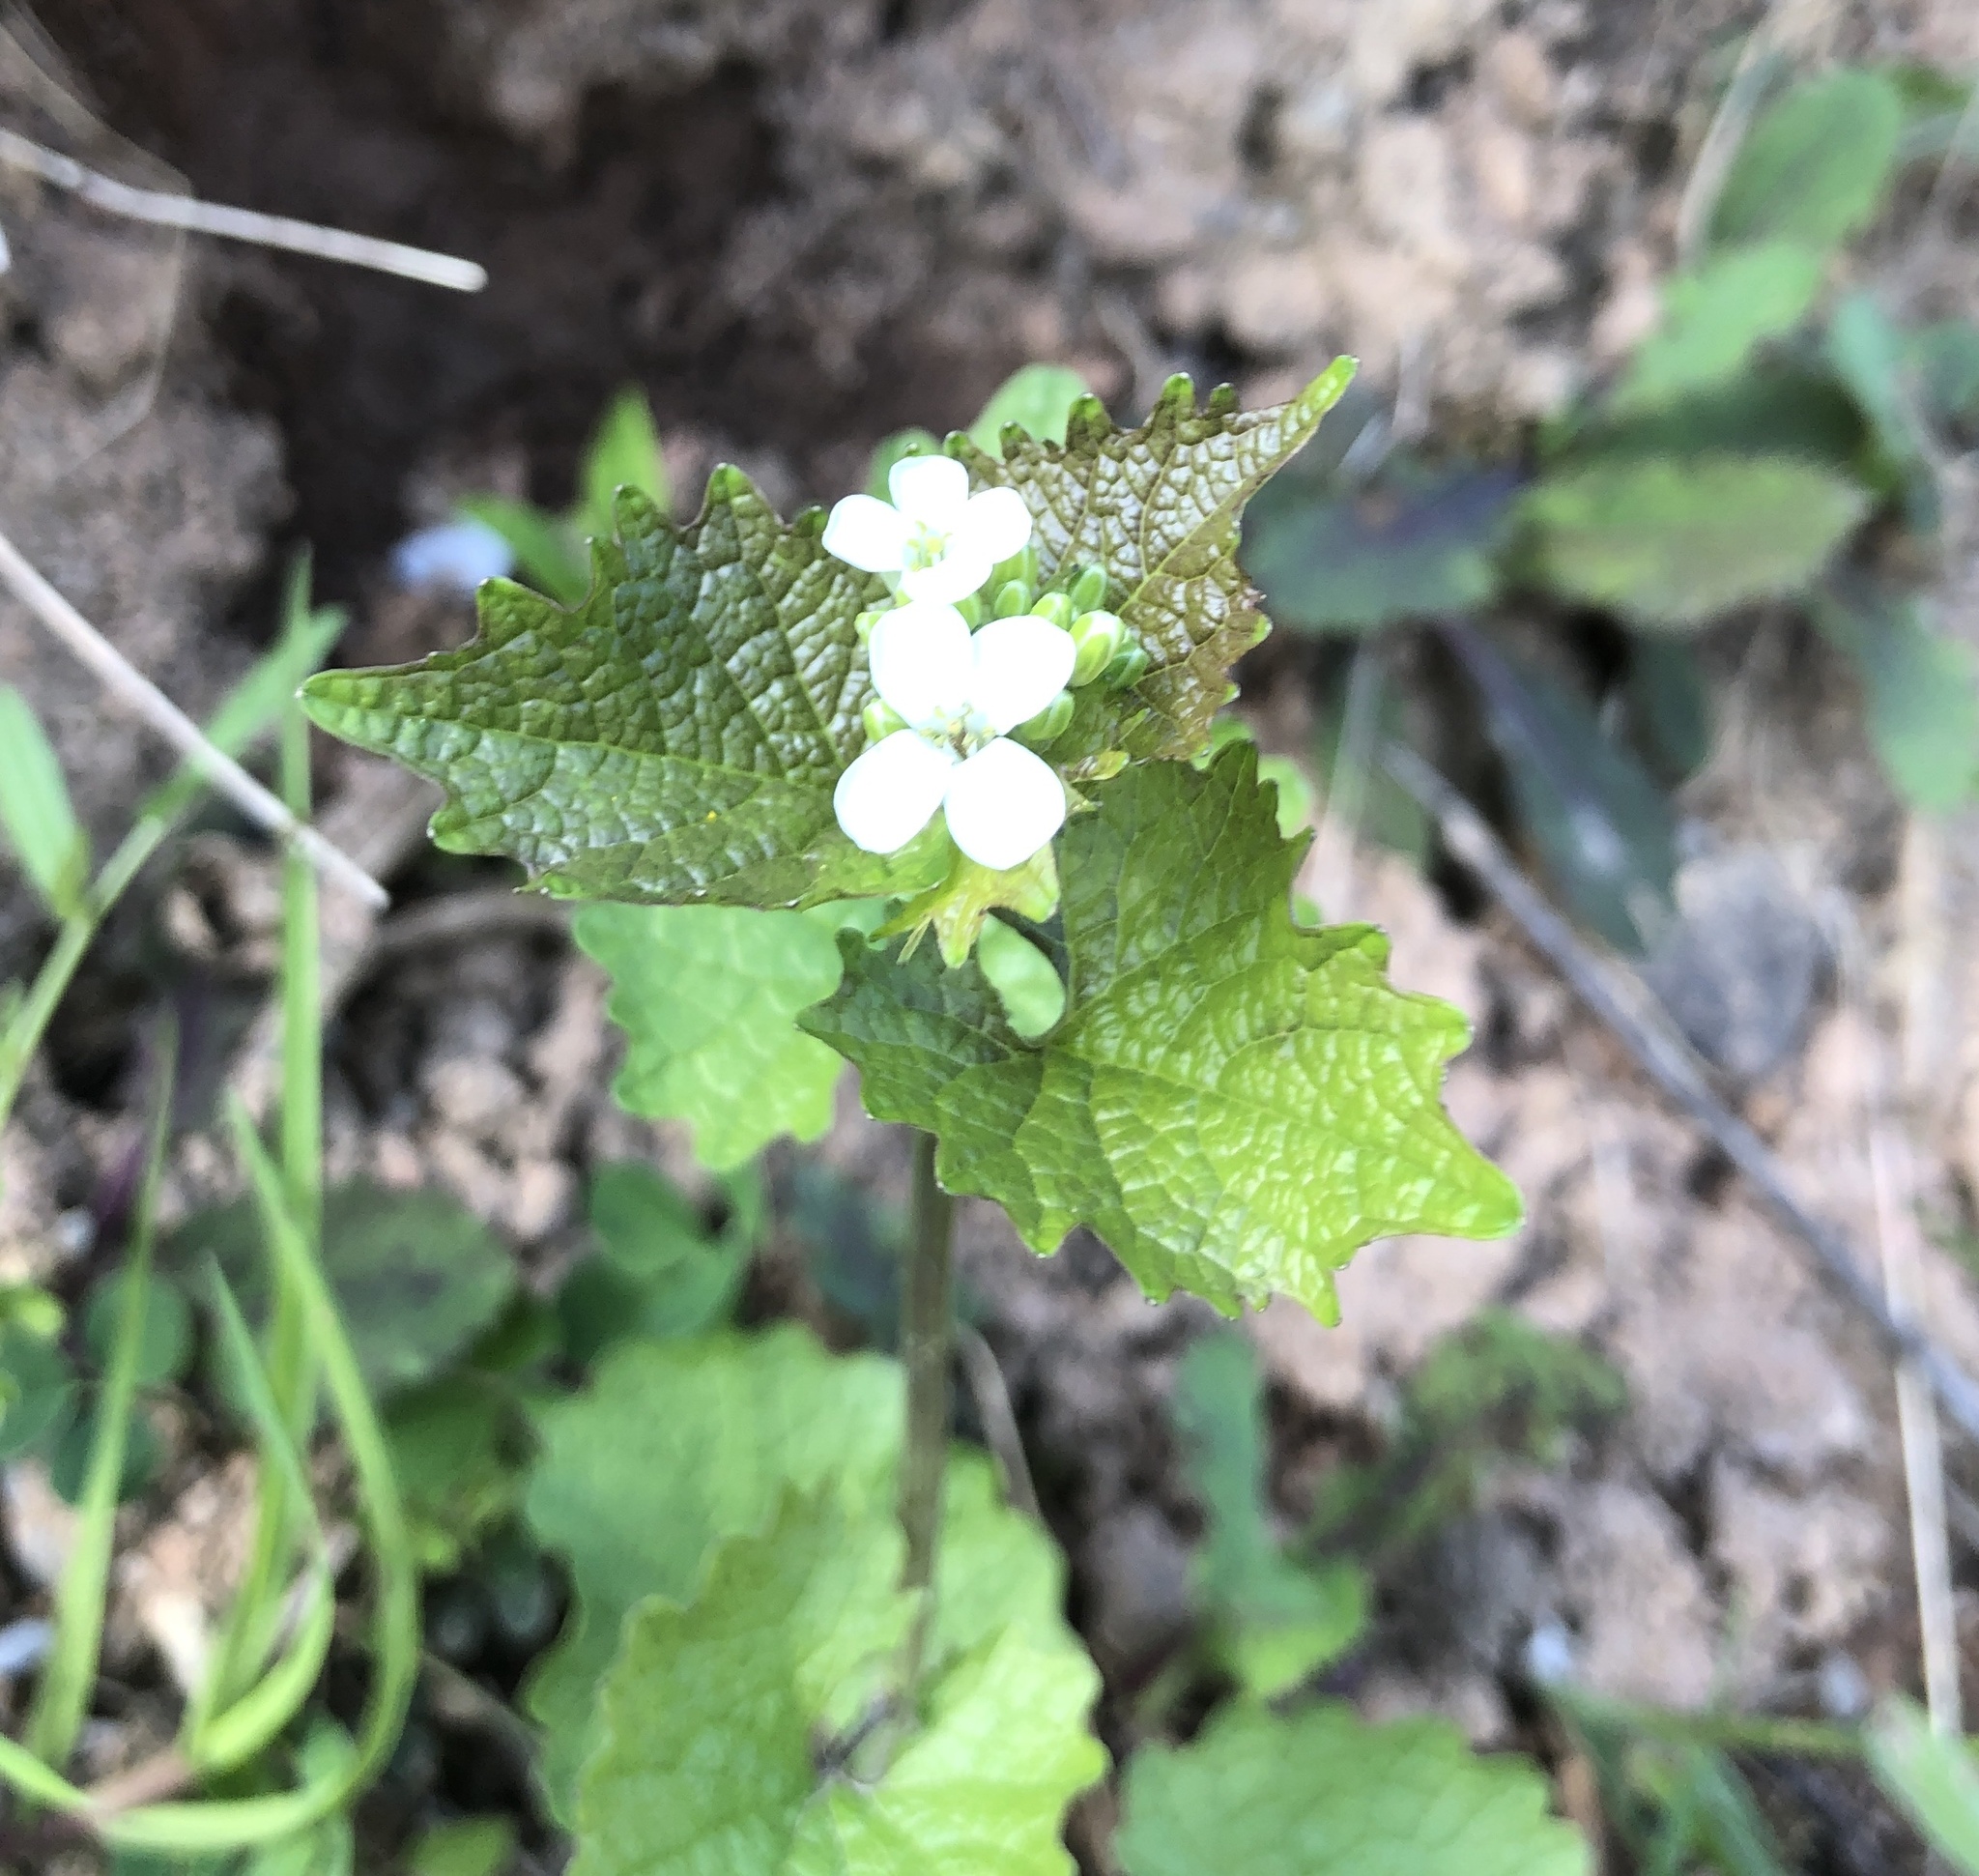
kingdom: Plantae
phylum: Tracheophyta
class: Magnoliopsida
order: Brassicales
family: Brassicaceae
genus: Alliaria
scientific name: Alliaria petiolata
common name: Garlic mustard
